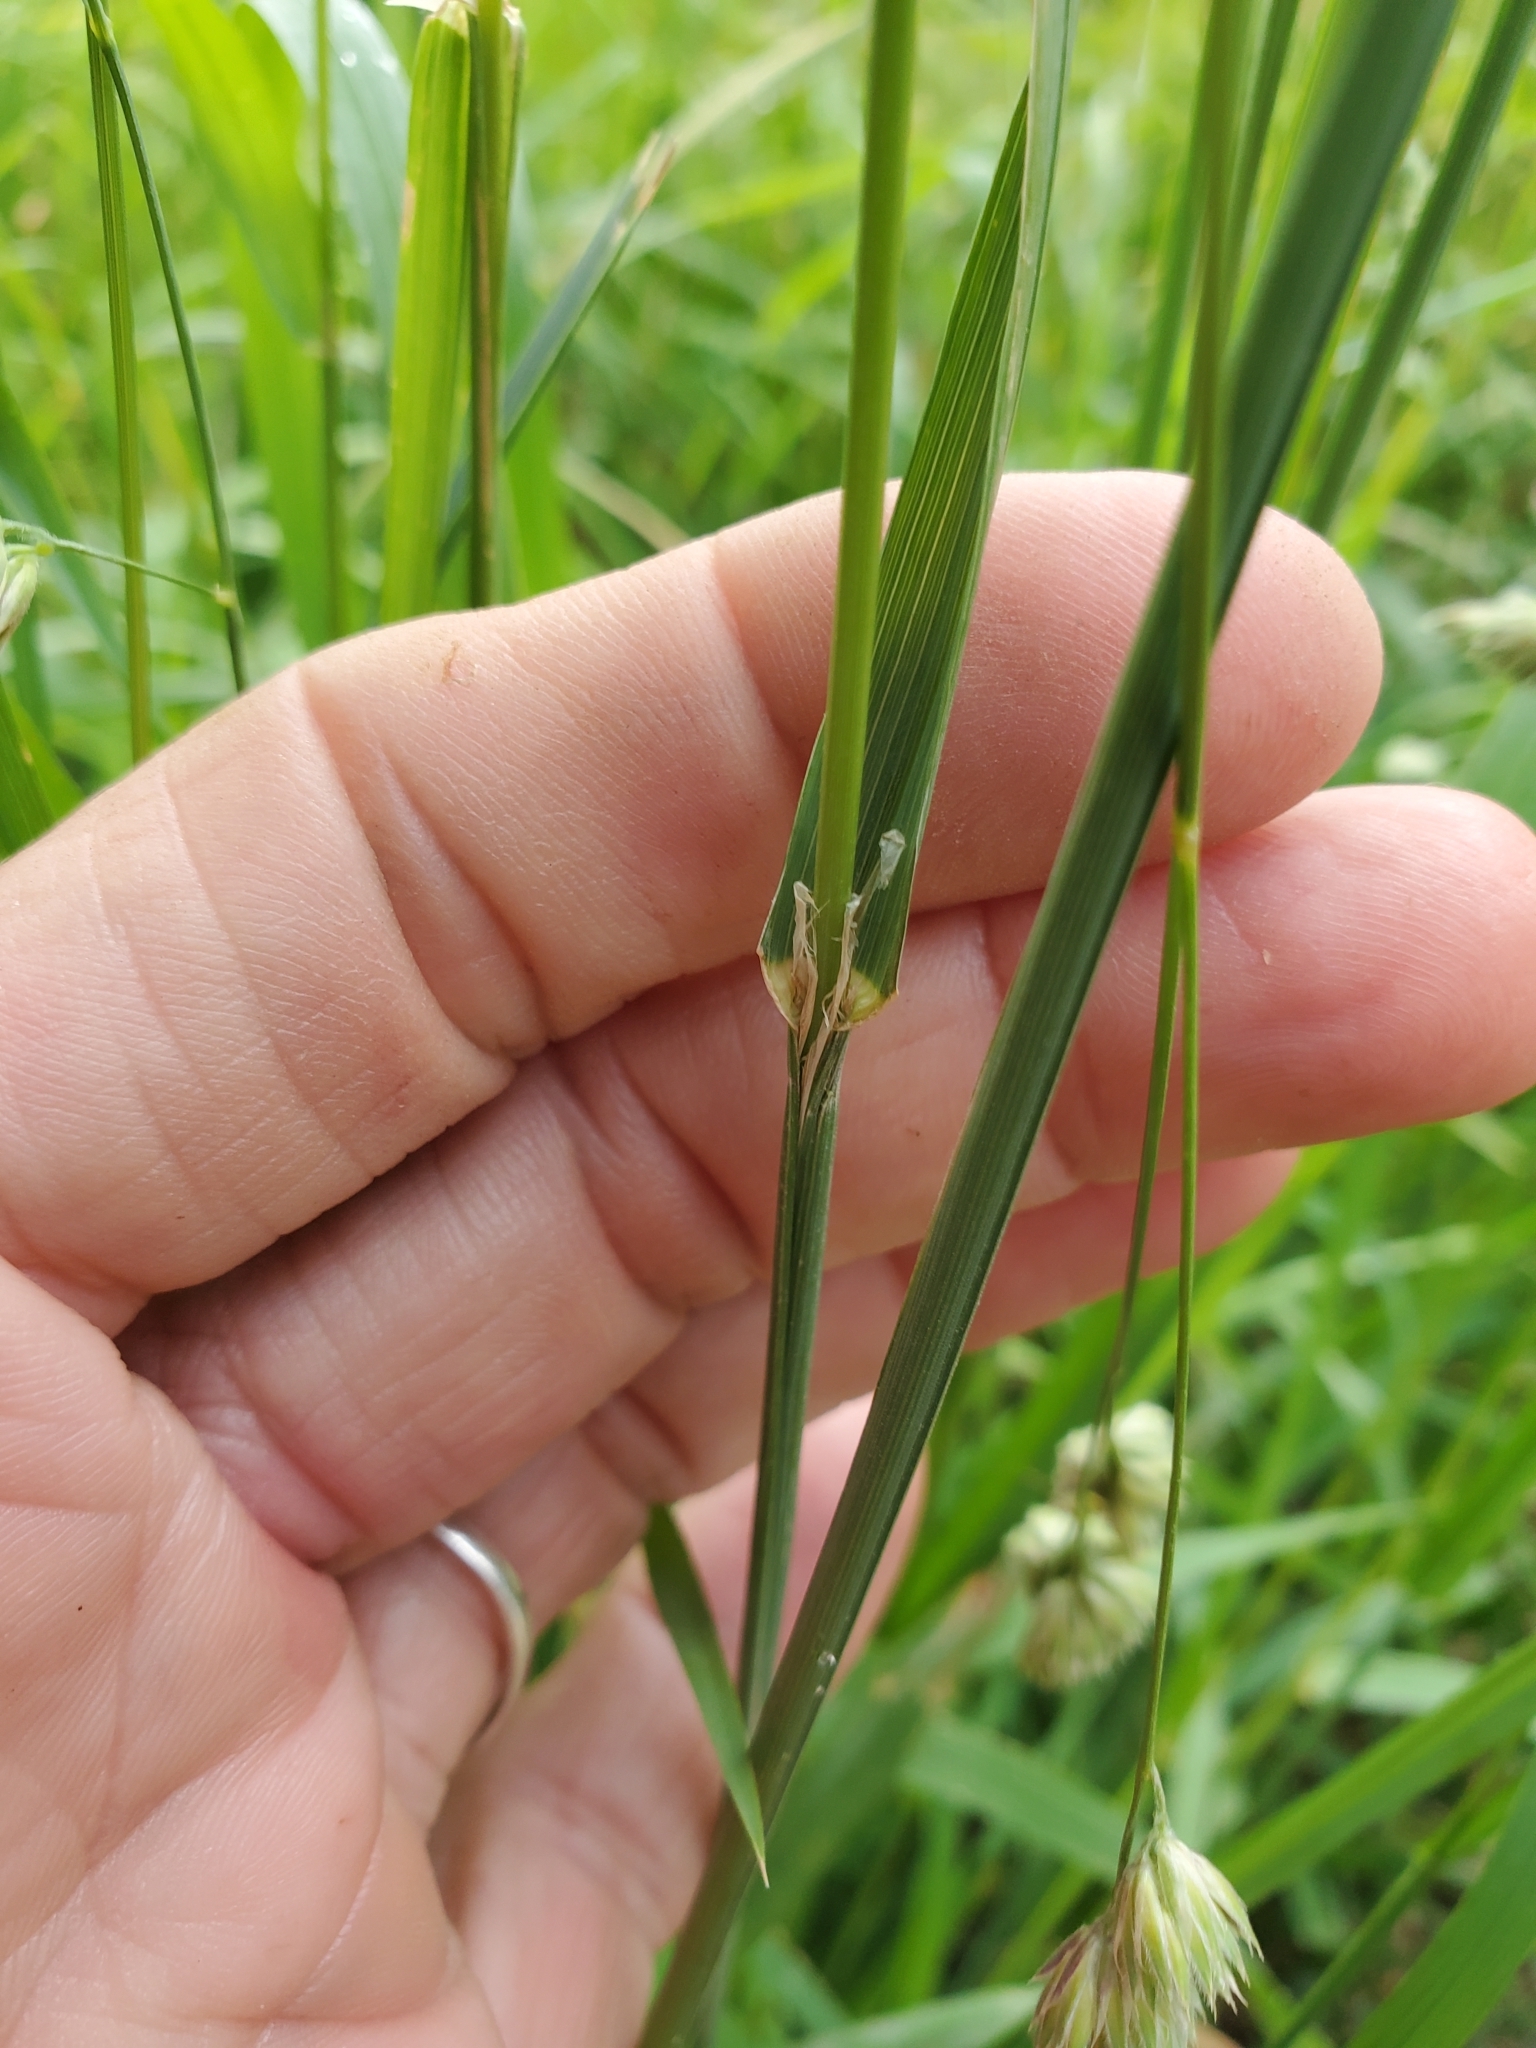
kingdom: Plantae
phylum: Tracheophyta
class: Liliopsida
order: Poales
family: Poaceae
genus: Dactylis
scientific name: Dactylis glomerata
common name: Orchardgrass
